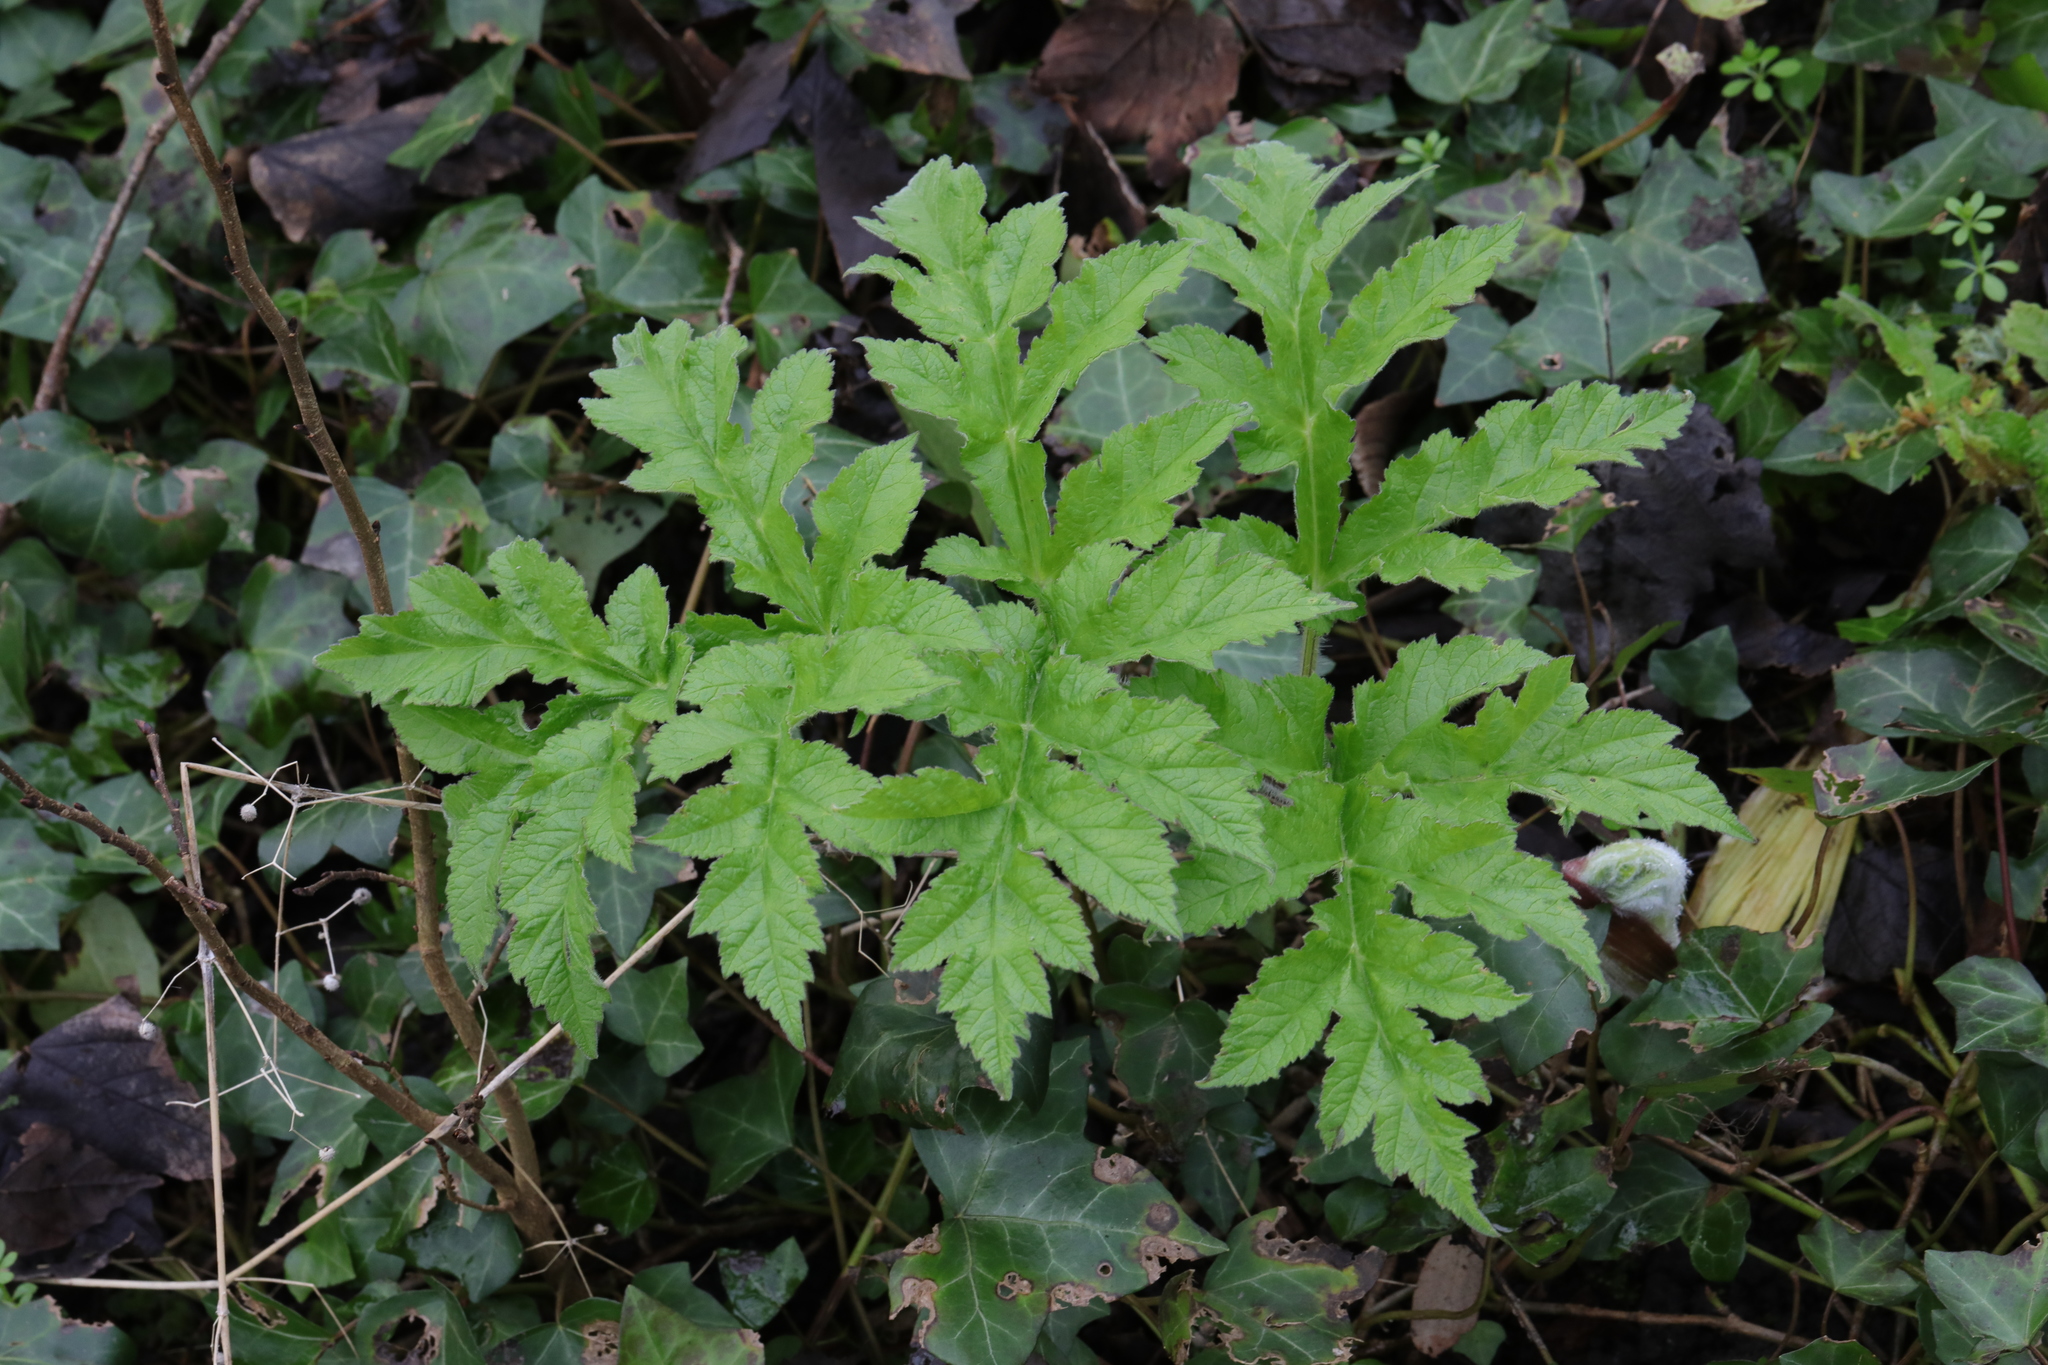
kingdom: Plantae
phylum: Tracheophyta
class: Magnoliopsida
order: Apiales
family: Apiaceae
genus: Heracleum
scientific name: Heracleum sphondylium
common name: Hogweed
